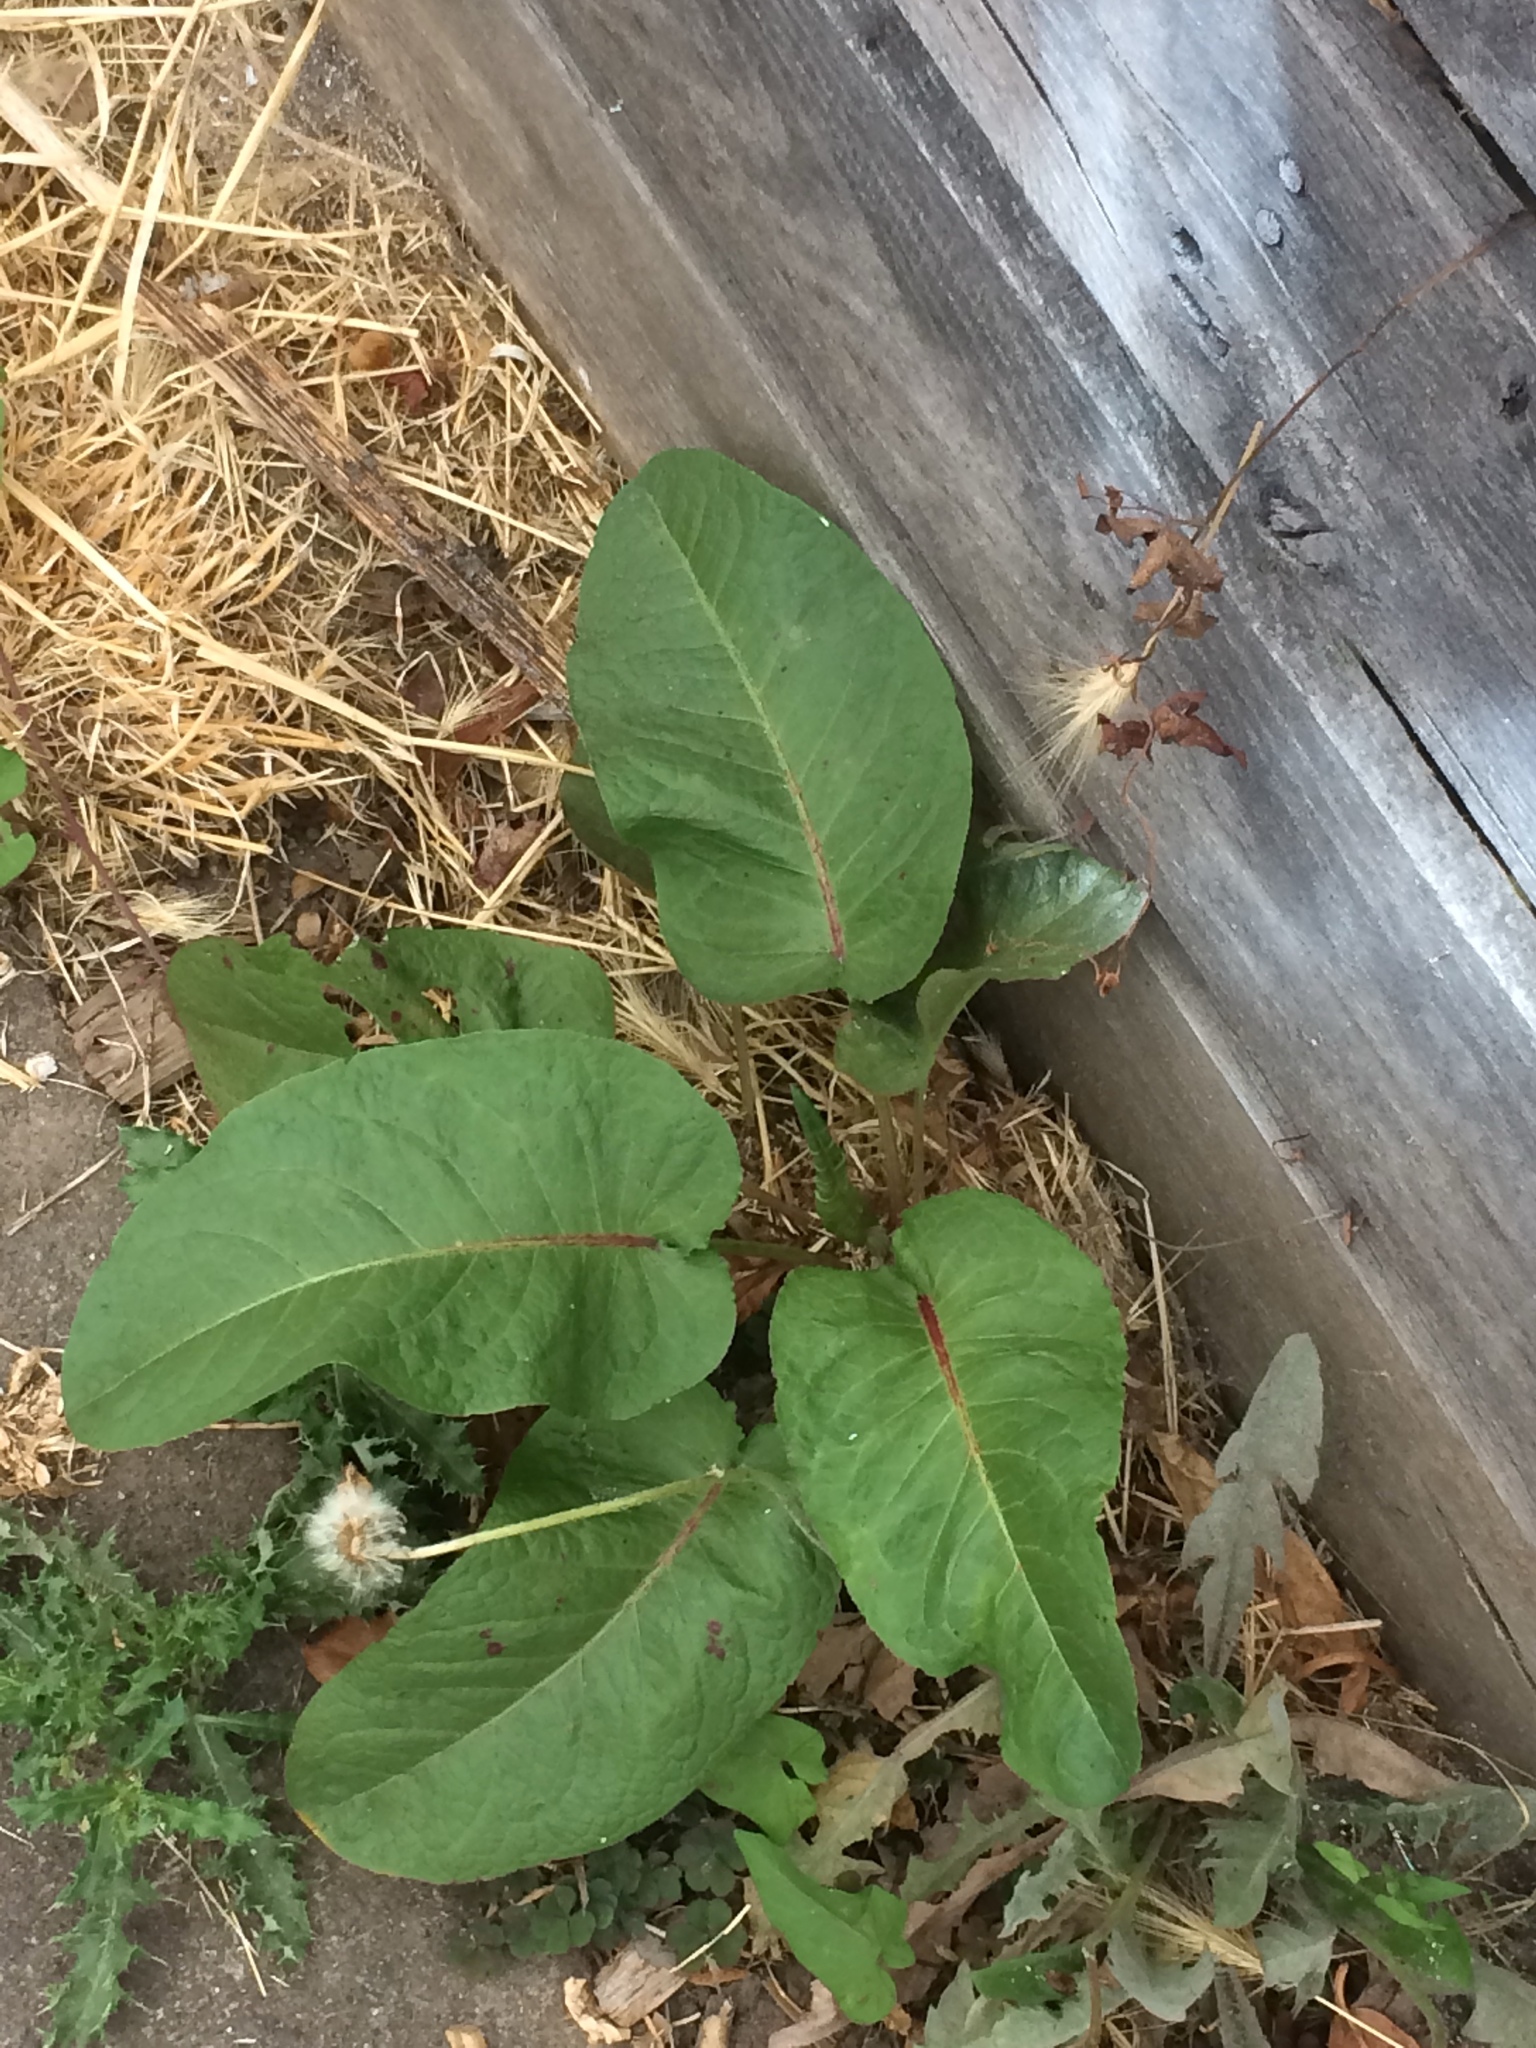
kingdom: Plantae
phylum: Tracheophyta
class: Magnoliopsida
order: Caryophyllales
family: Polygonaceae
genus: Rumex
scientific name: Rumex obtusifolius
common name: Bitter dock
